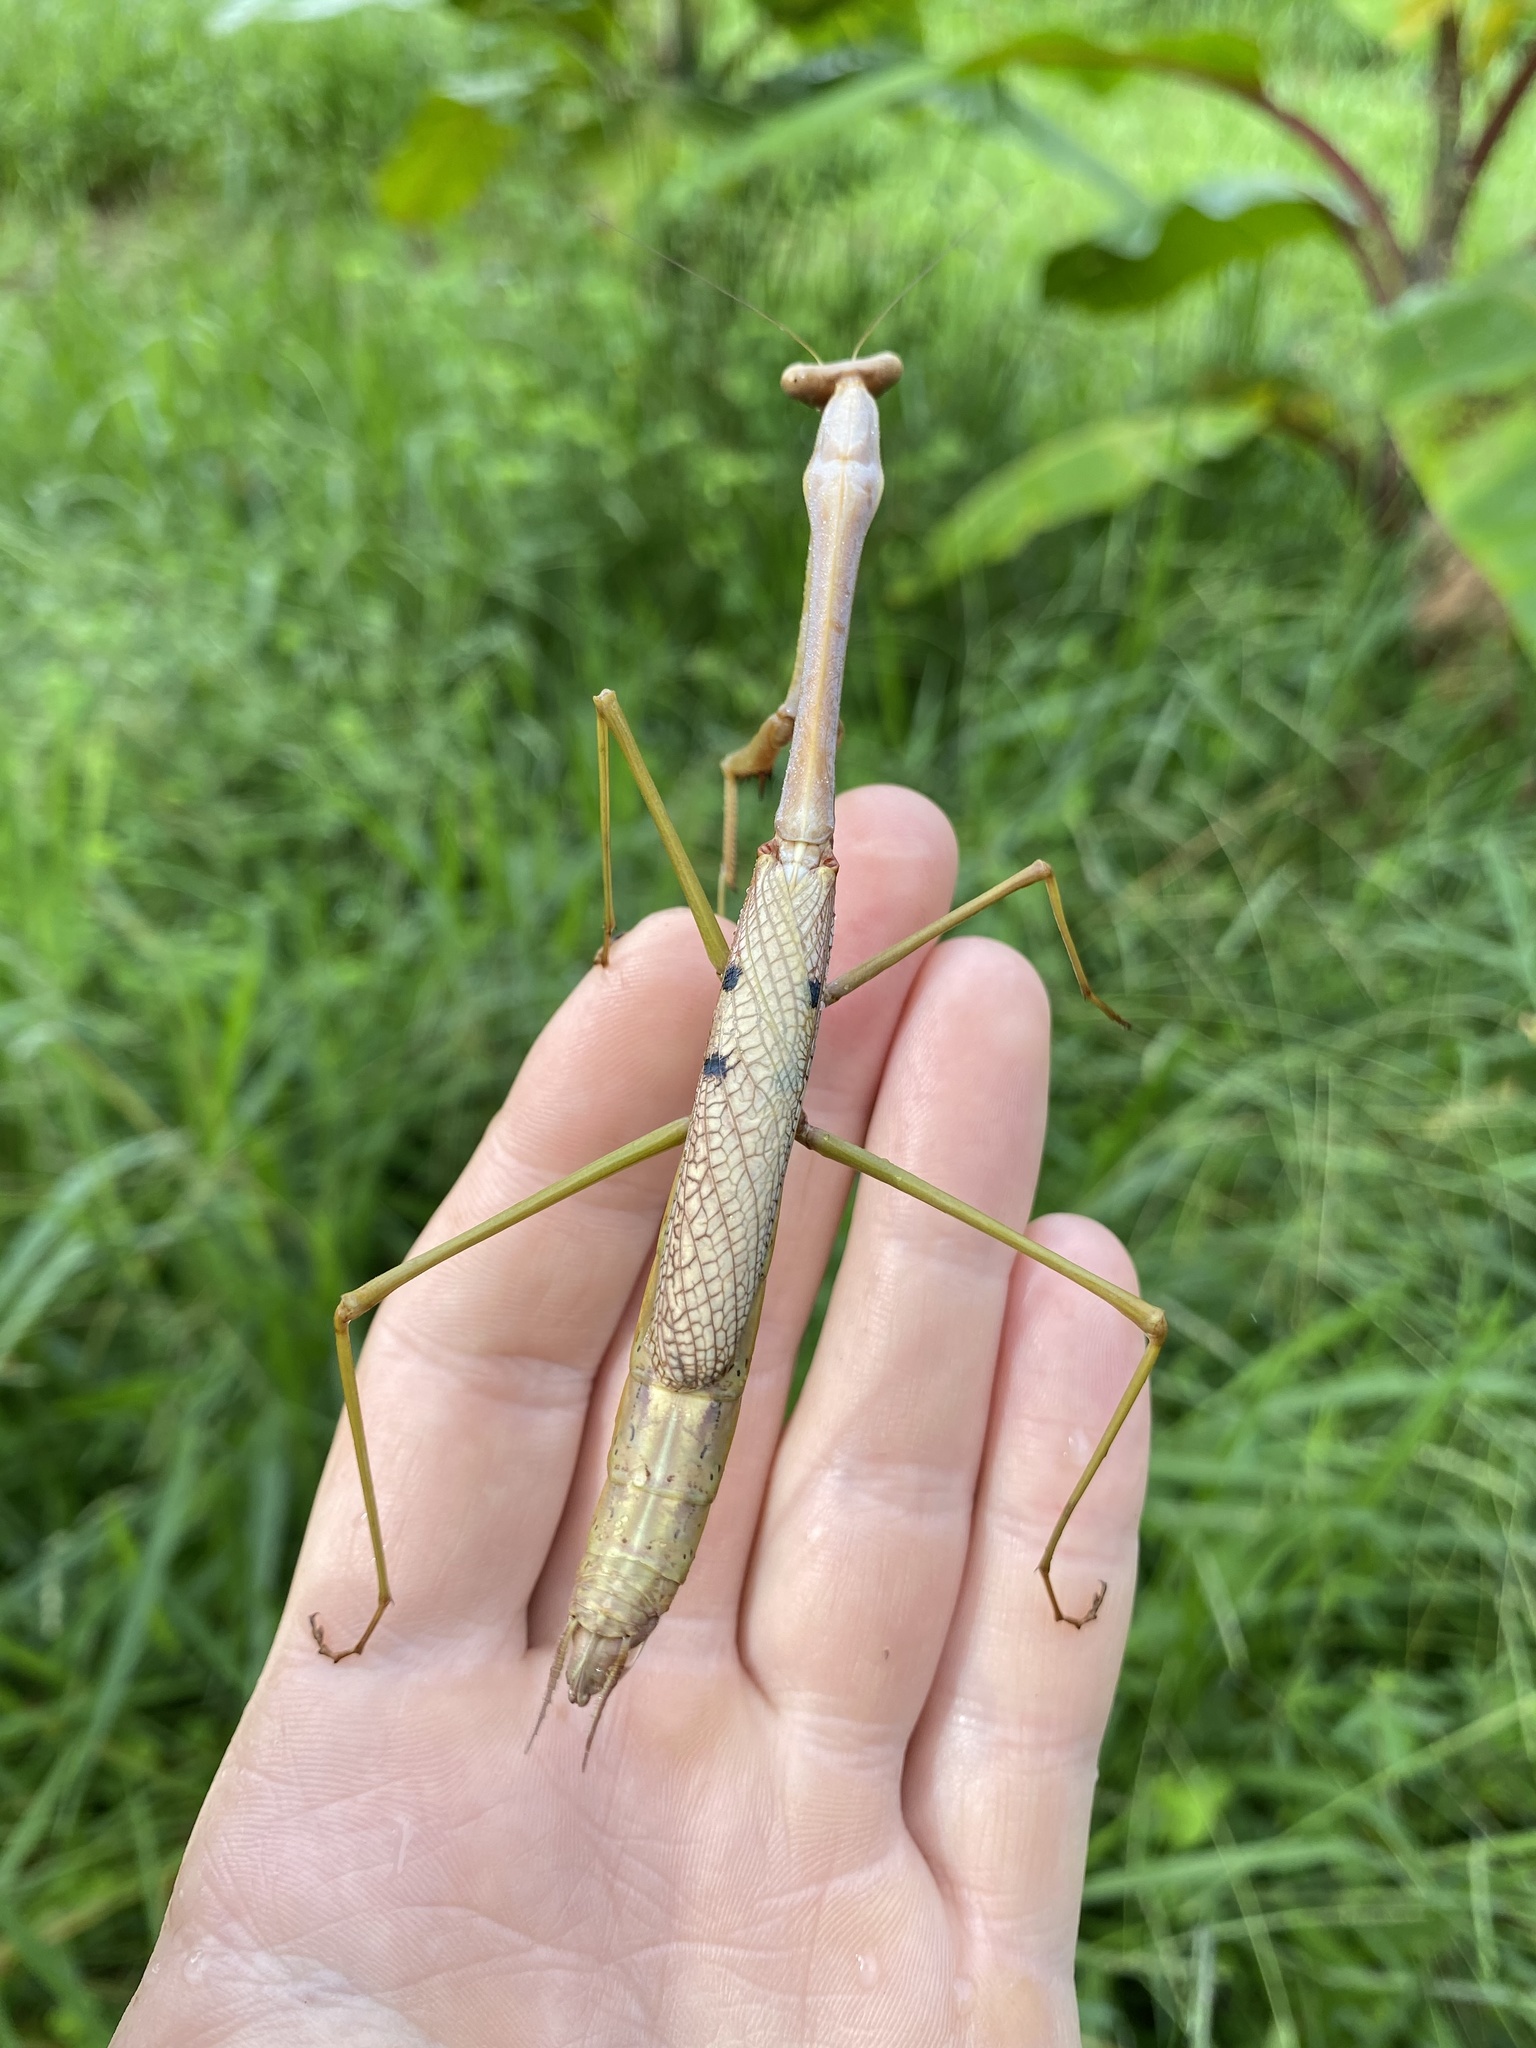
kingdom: Animalia
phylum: Arthropoda
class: Insecta
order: Mantodea
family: Mantidae
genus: Archimantis
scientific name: Archimantis latistyla
